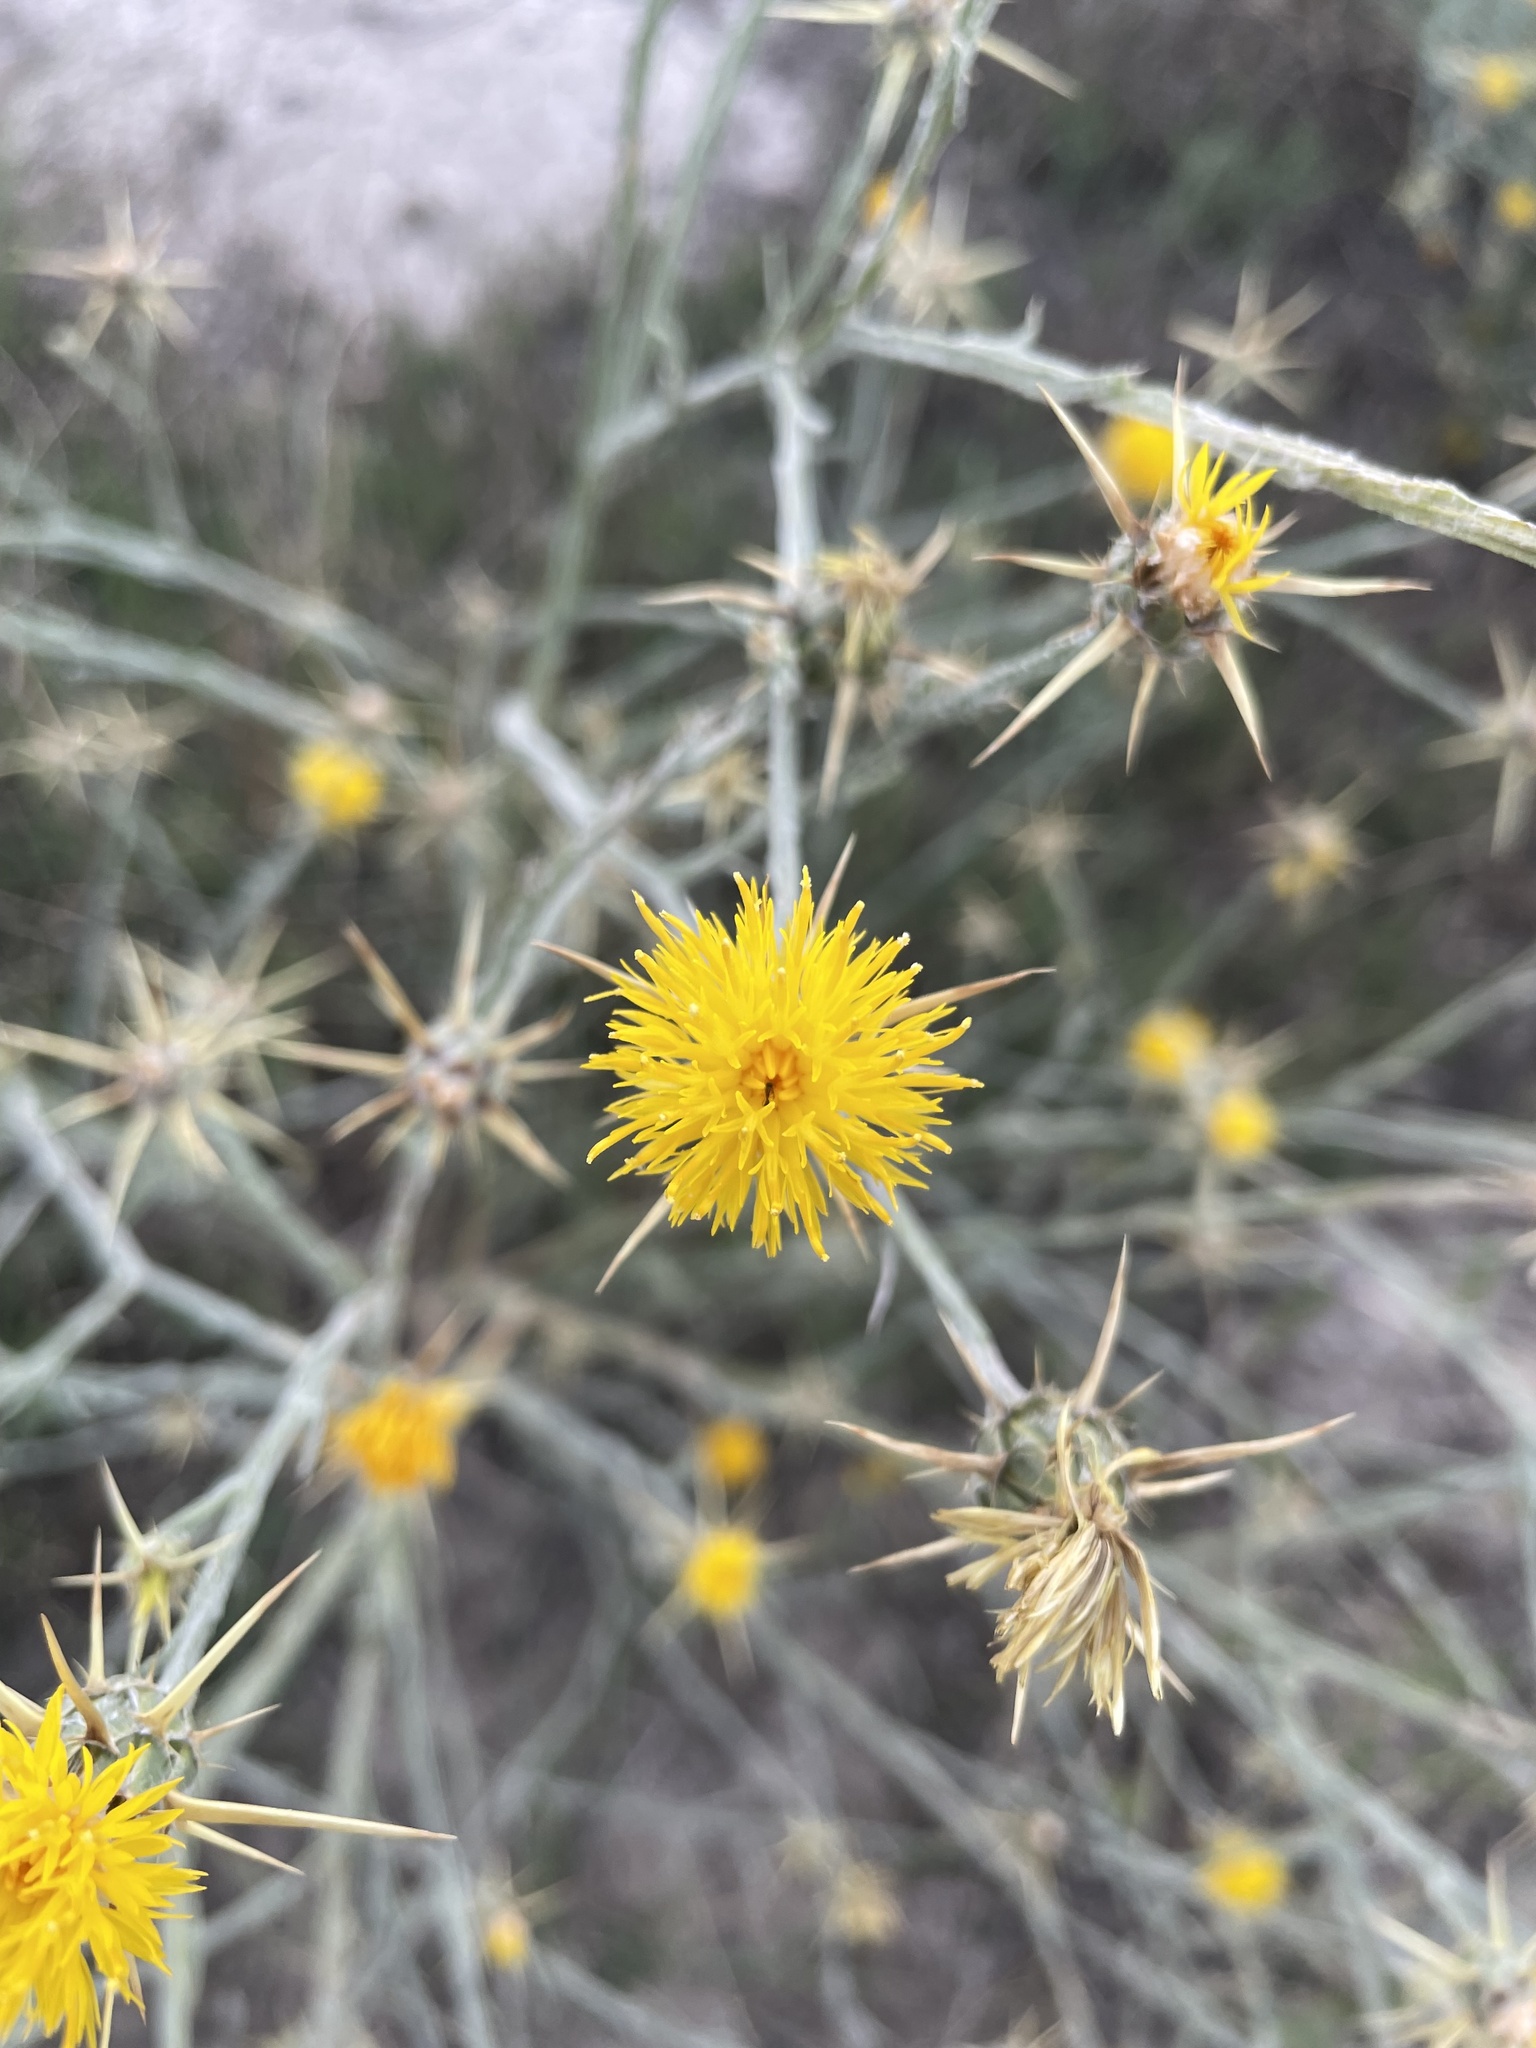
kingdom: Plantae
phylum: Tracheophyta
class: Magnoliopsida
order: Asterales
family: Asteraceae
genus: Centaurea
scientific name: Centaurea solstitialis
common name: Yellow star-thistle
